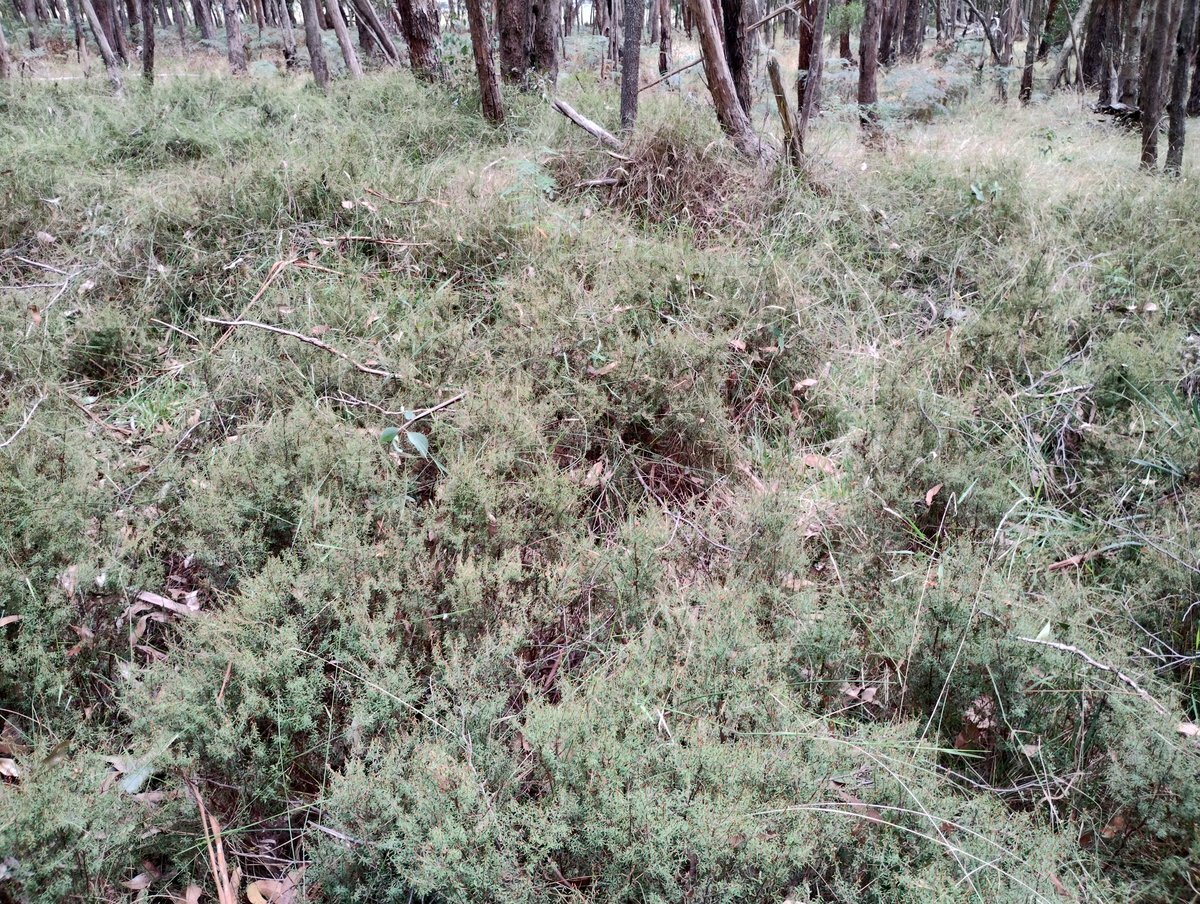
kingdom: Plantae
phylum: Tracheophyta
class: Magnoliopsida
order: Fabales
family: Fabaceae
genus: Pultenaea
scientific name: Pultenaea reflexifolia
